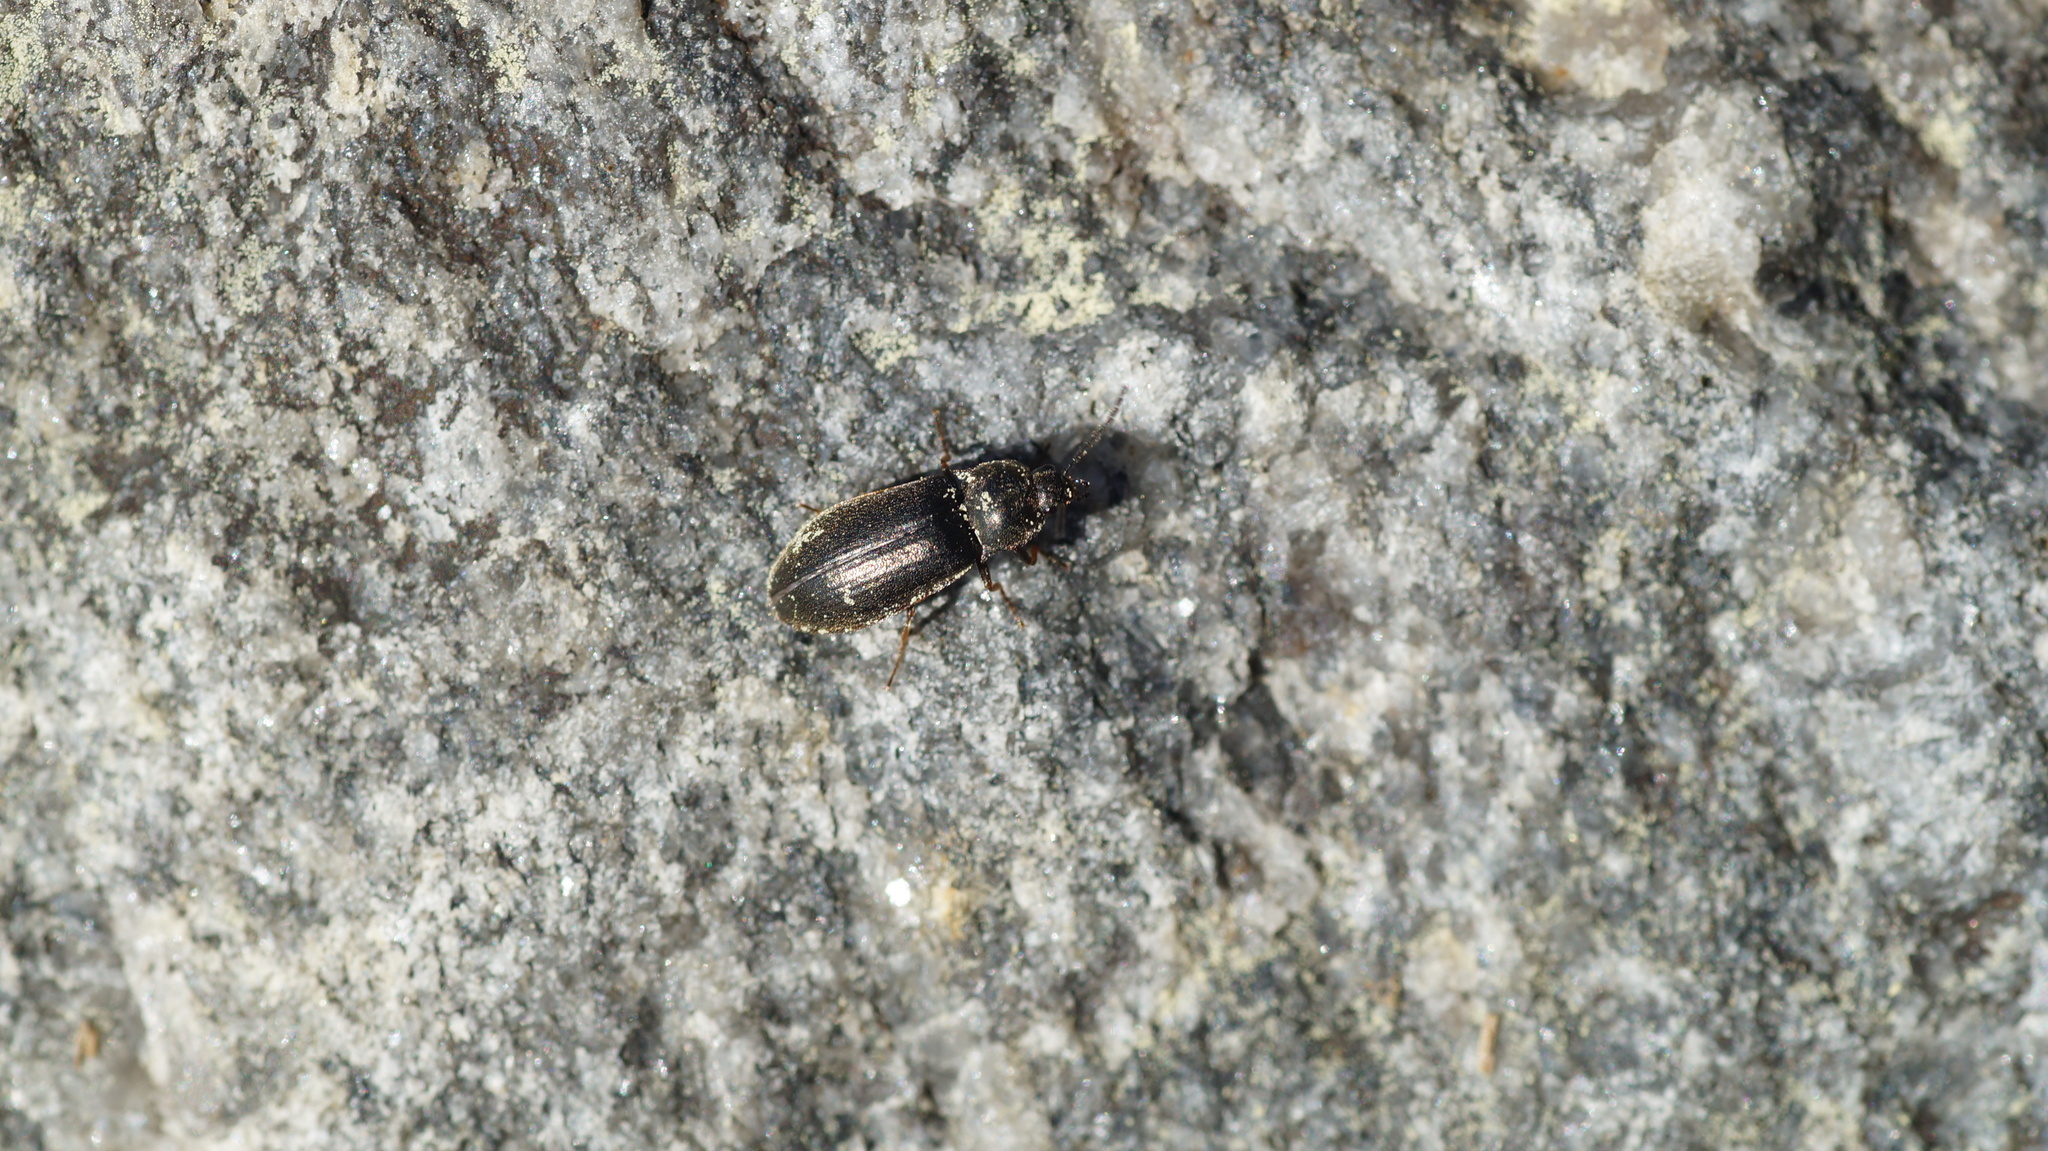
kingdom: Animalia
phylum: Arthropoda
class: Insecta
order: Coleoptera
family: Elateridae
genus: Eanus
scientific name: Eanus costalis
